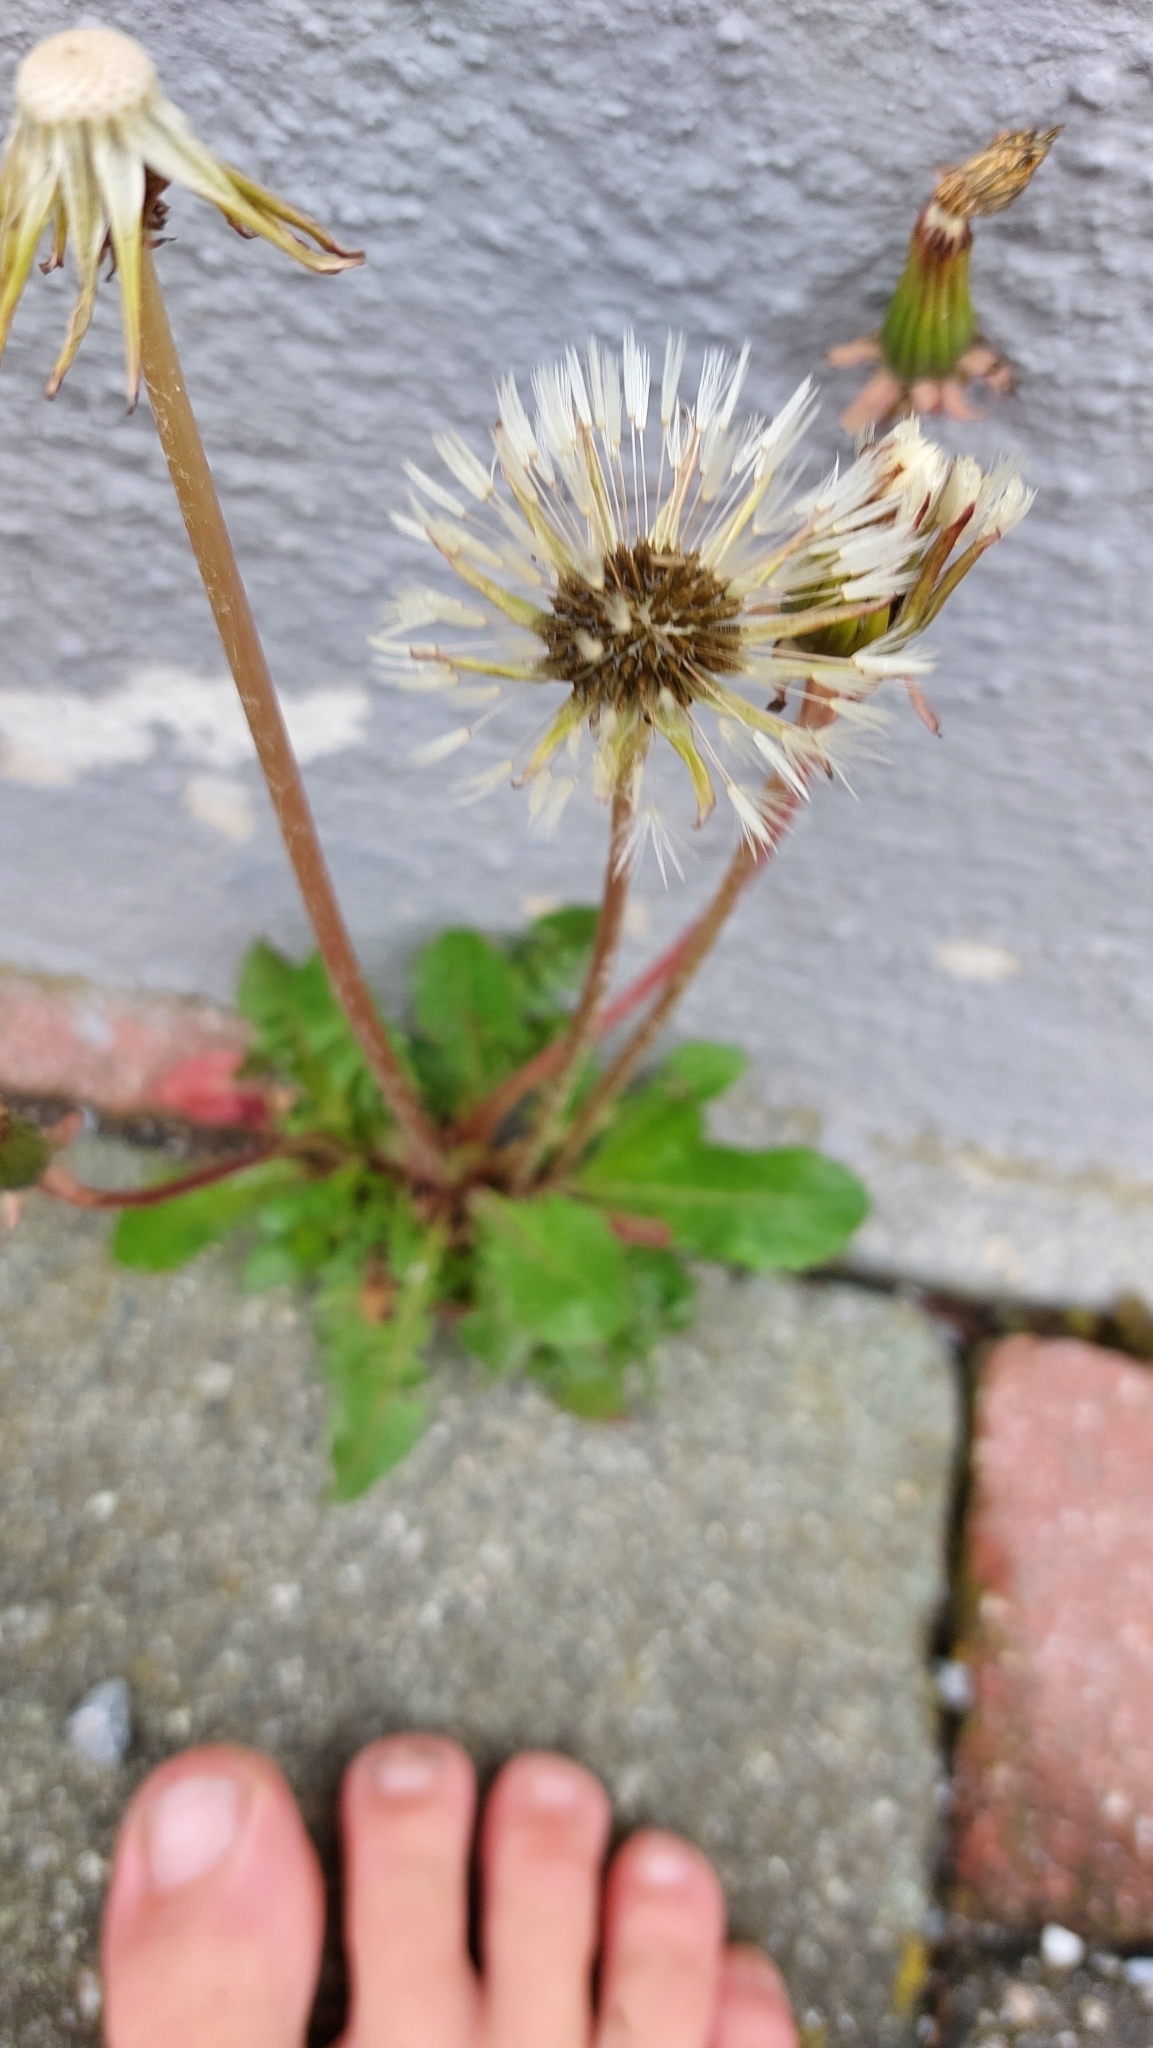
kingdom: Plantae
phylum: Tracheophyta
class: Magnoliopsida
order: Asterales
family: Asteraceae
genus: Taraxacum
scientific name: Taraxacum
